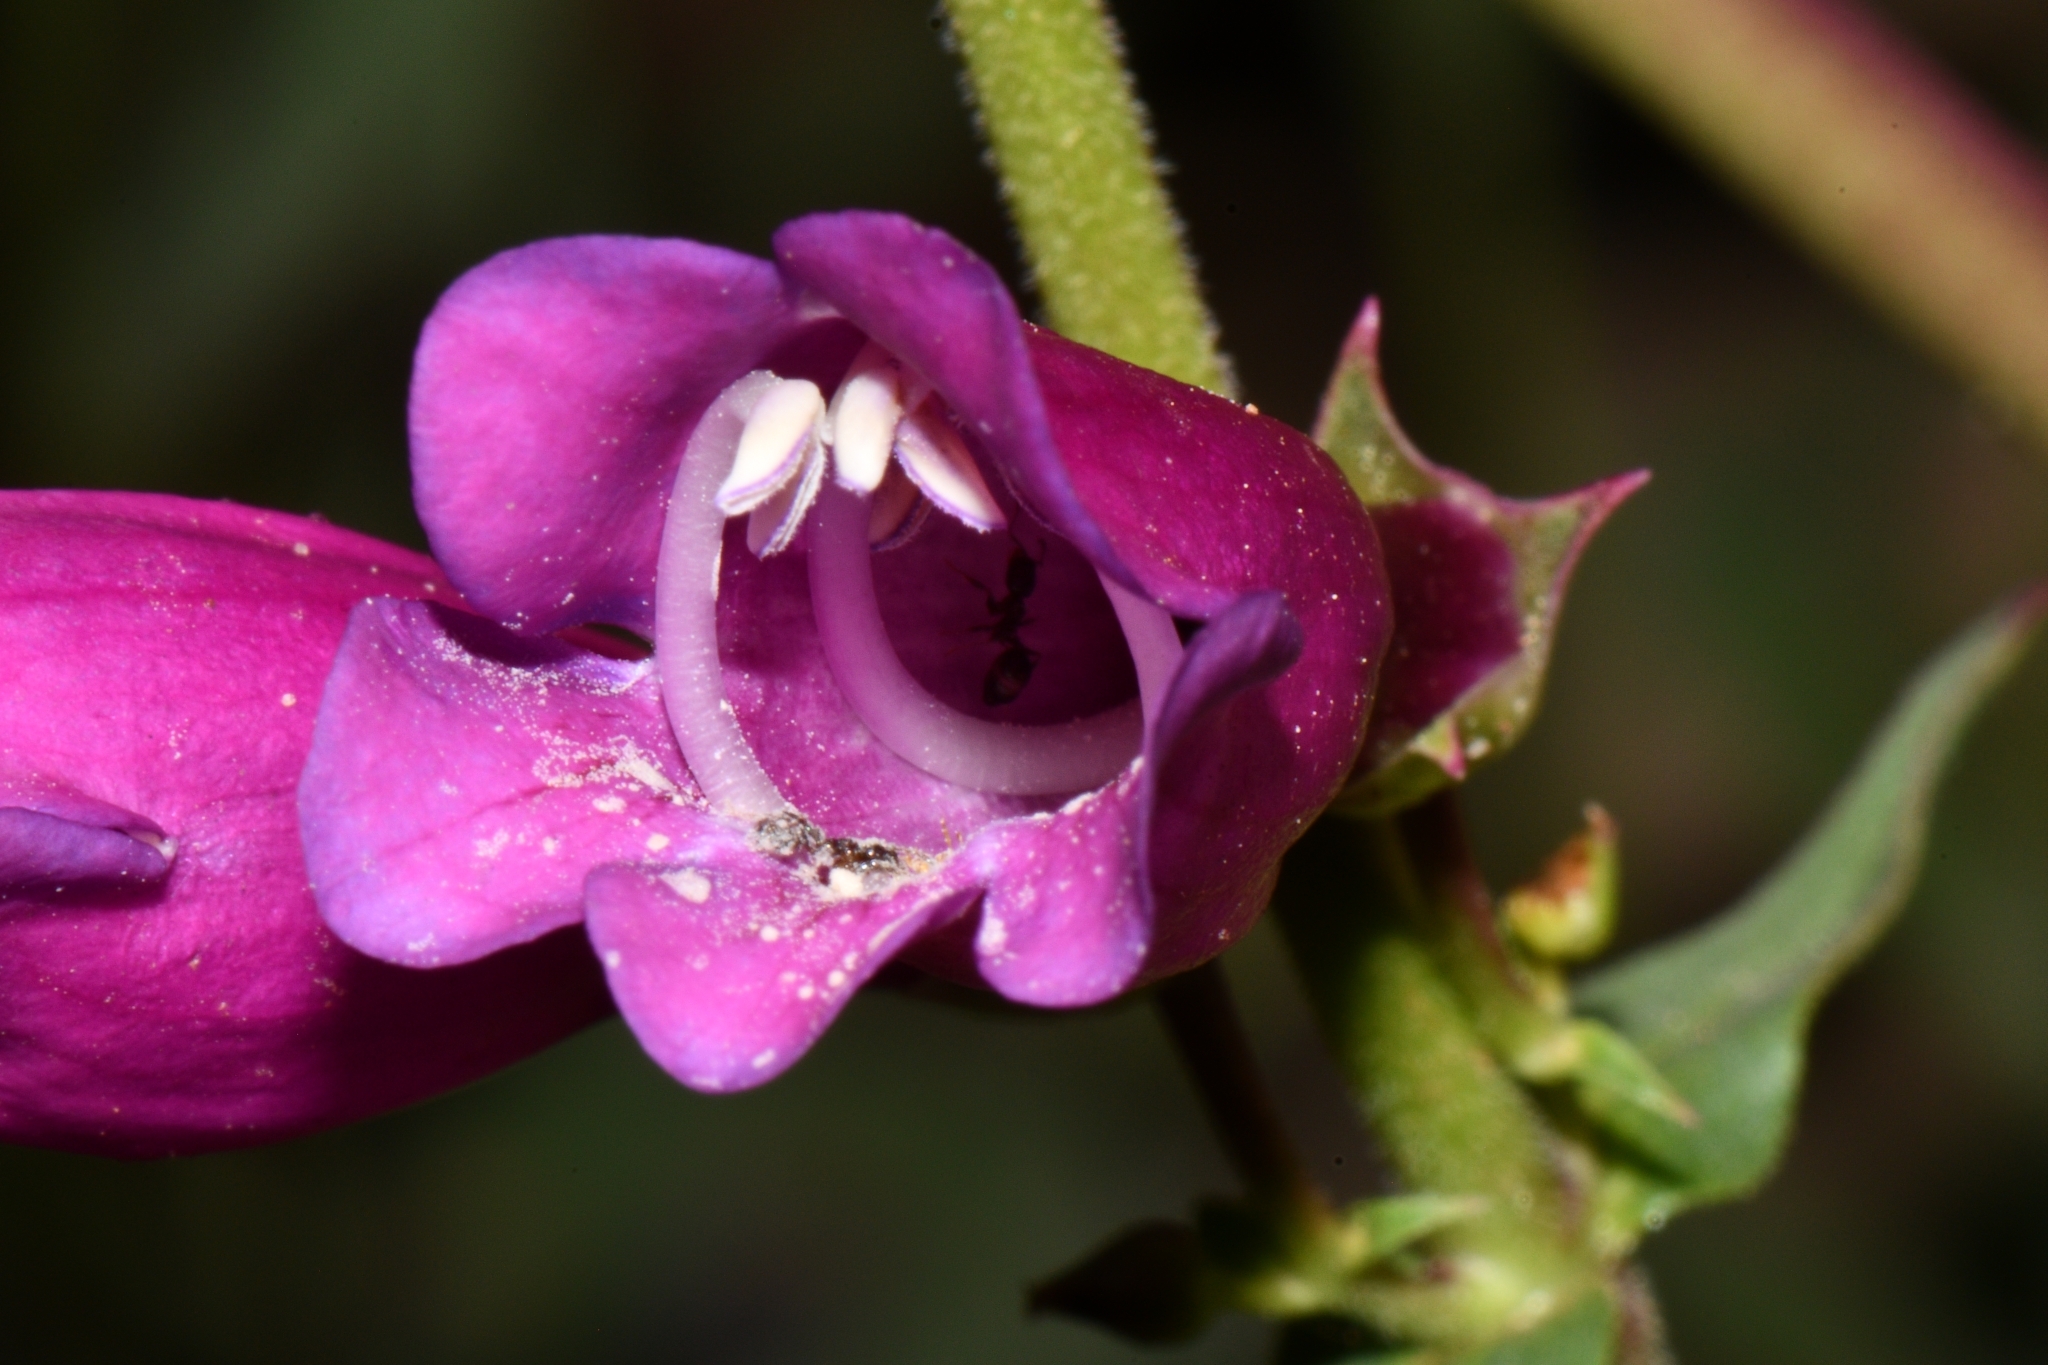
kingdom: Plantae
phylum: Tracheophyta
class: Magnoliopsida
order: Lamiales
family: Plantaginaceae
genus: Penstemon
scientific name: Penstemon jonesii
